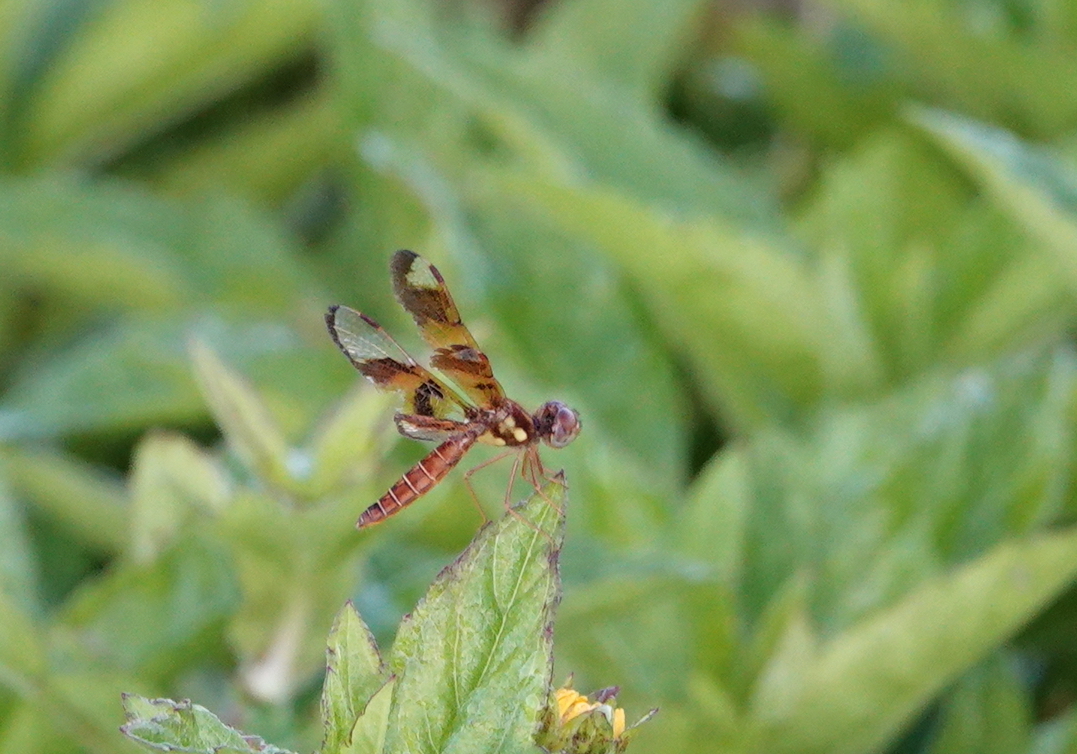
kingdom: Animalia
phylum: Arthropoda
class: Insecta
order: Odonata
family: Libellulidae
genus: Perithemis
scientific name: Perithemis tenera
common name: Eastern amberwing
